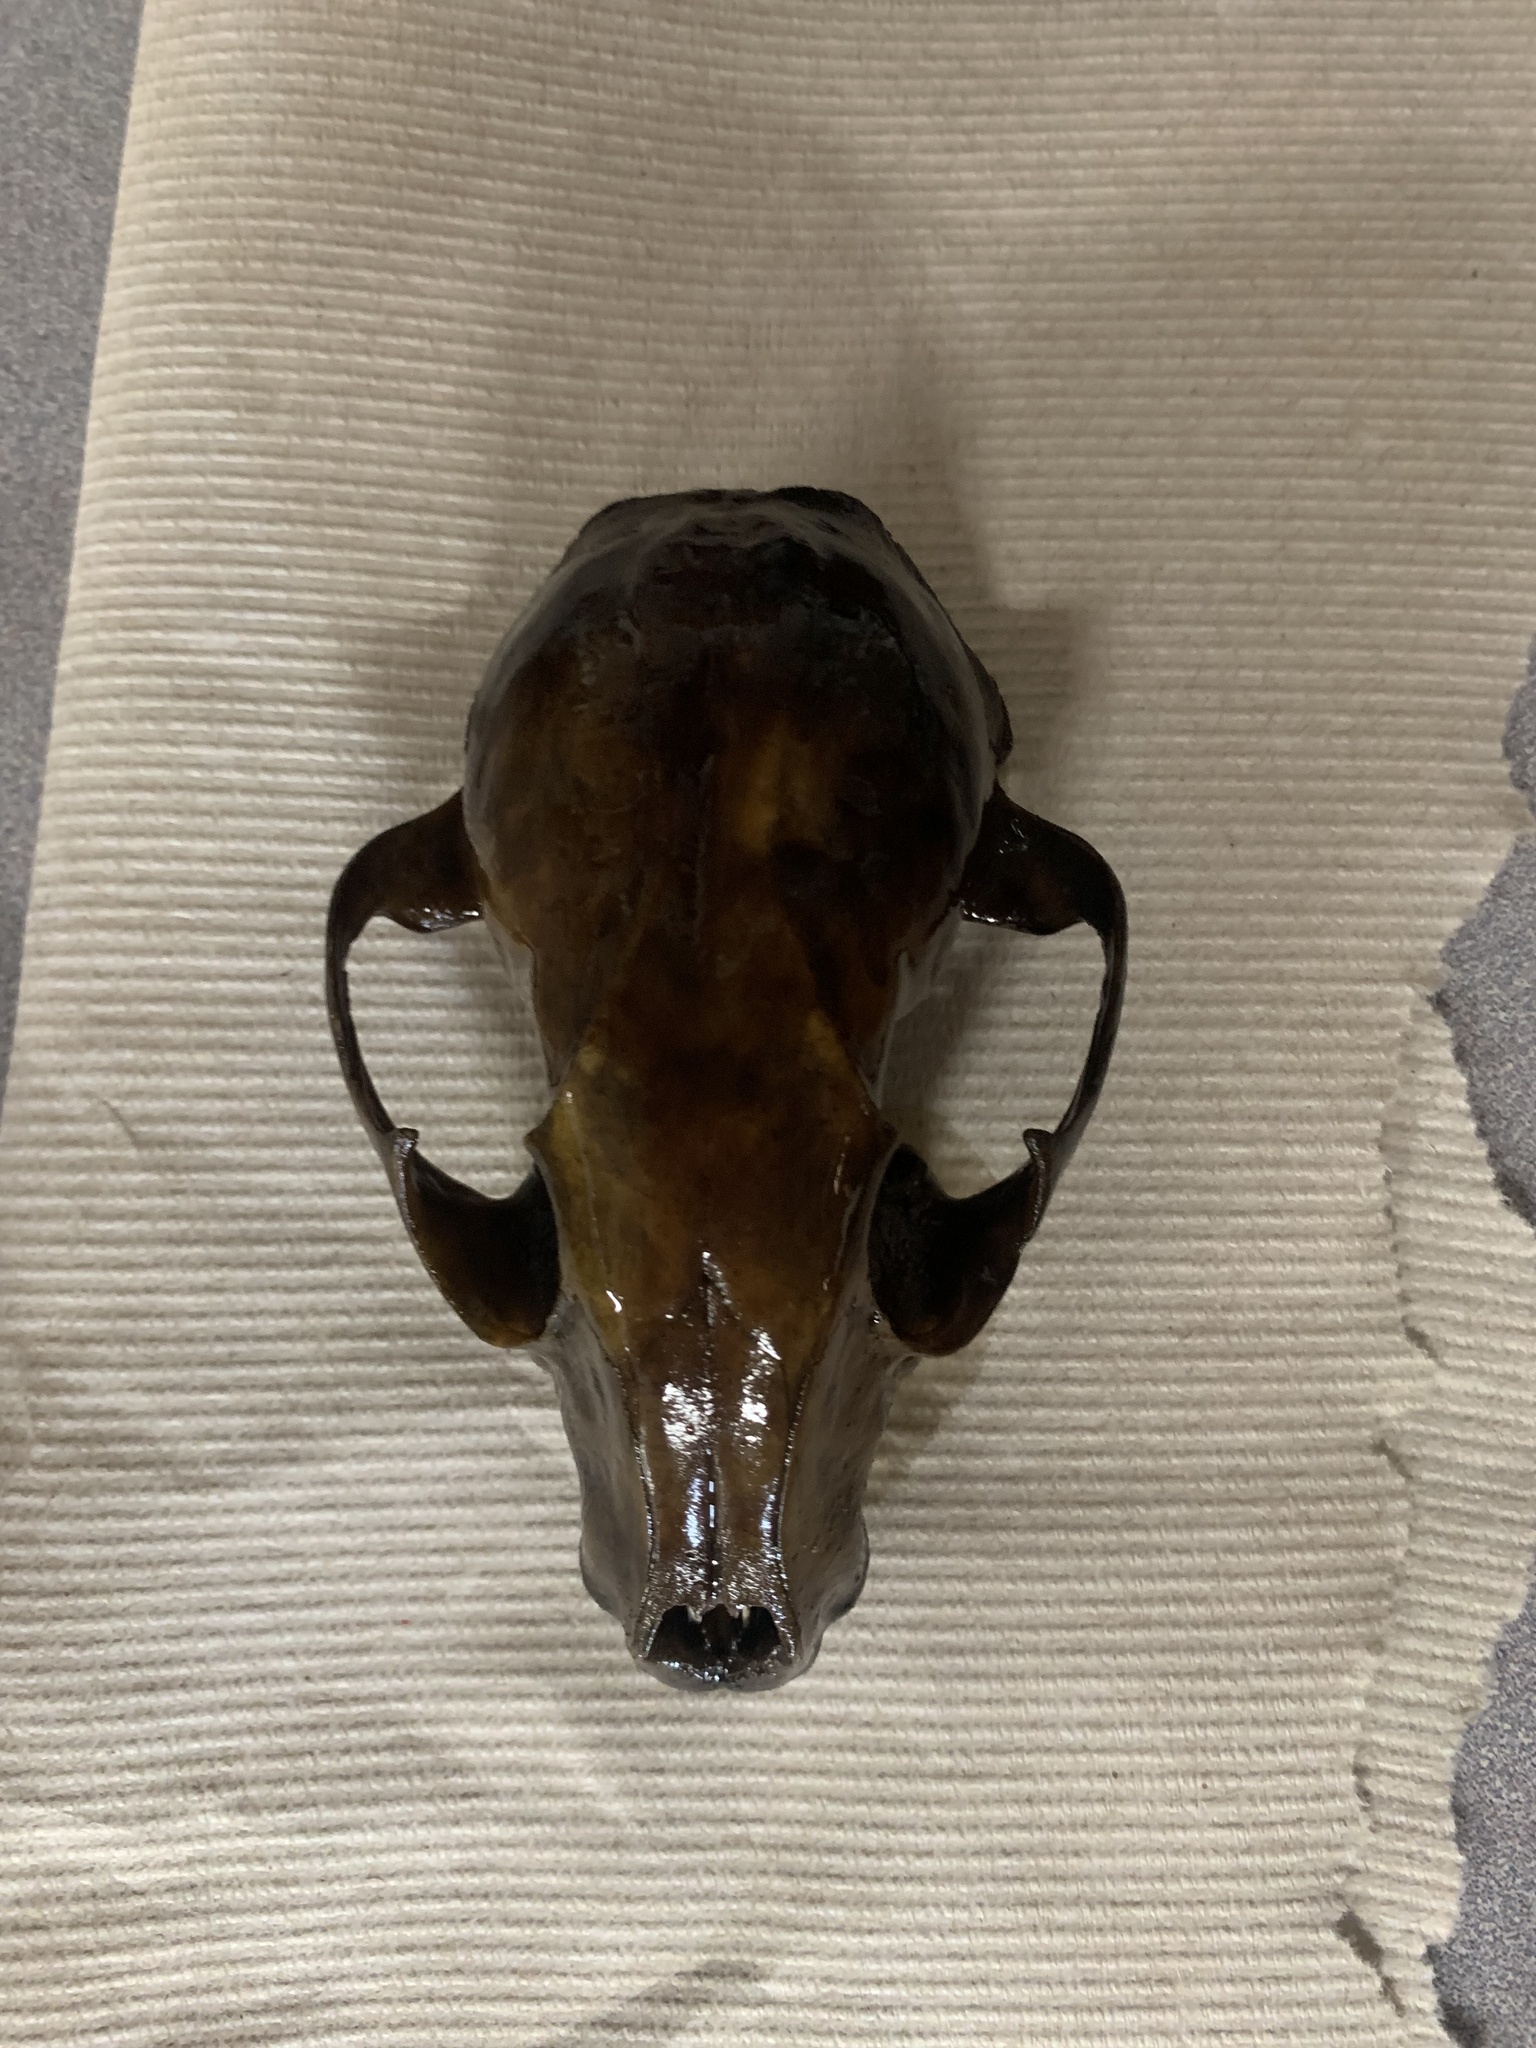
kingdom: Animalia
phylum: Chordata
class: Mammalia
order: Carnivora
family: Procyonidae
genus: Procyon
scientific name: Procyon lotor
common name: Raccoon
